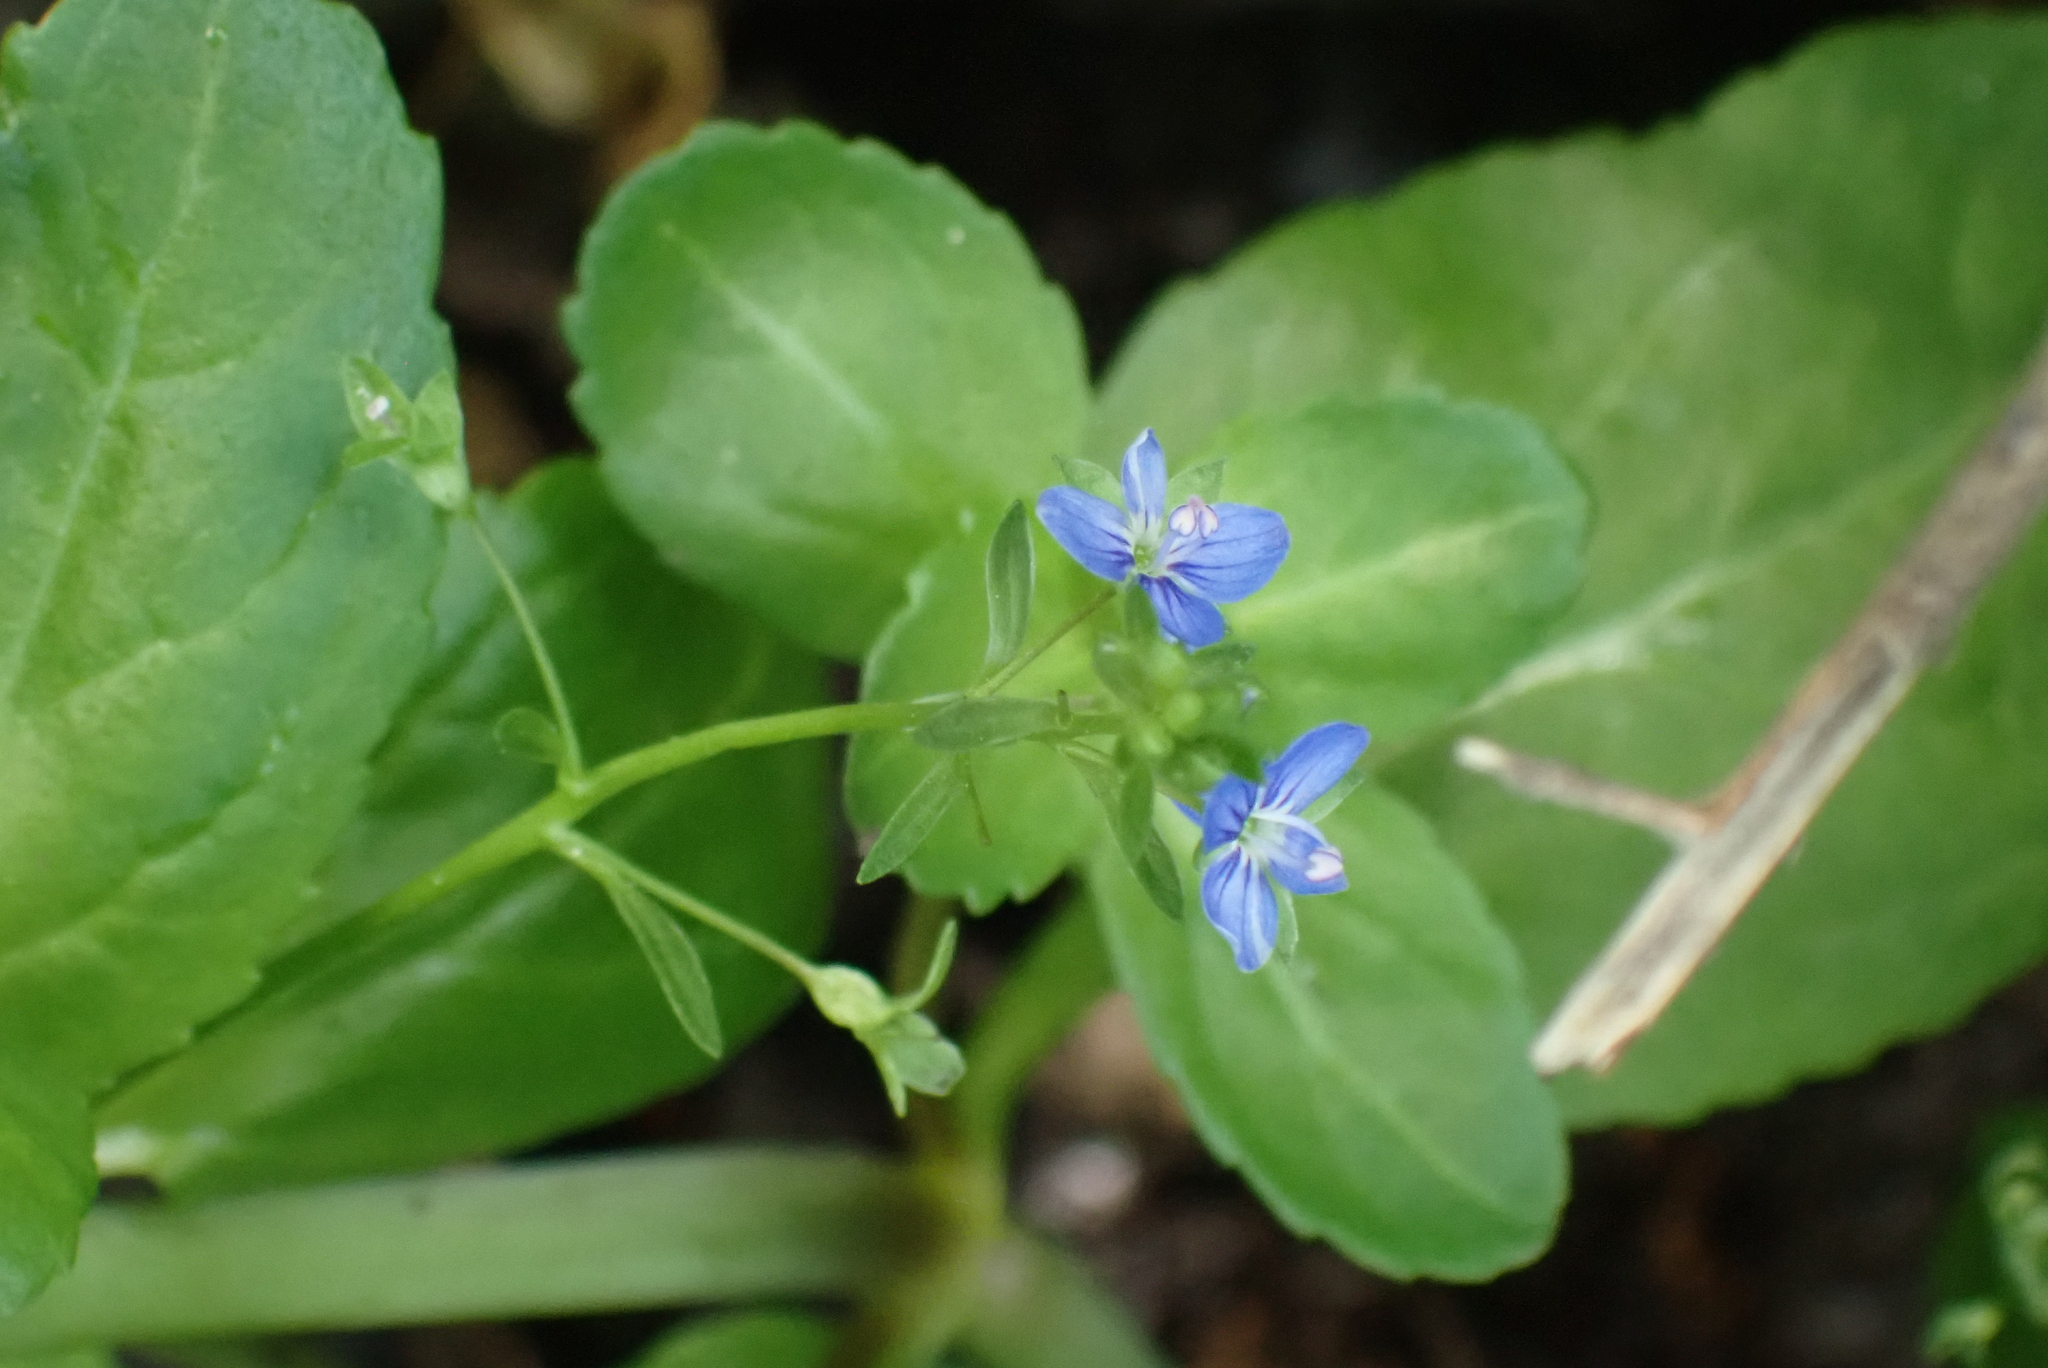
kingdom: Plantae
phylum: Tracheophyta
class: Magnoliopsida
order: Lamiales
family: Plantaginaceae
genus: Veronica
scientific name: Veronica beccabunga
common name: Brooklime
